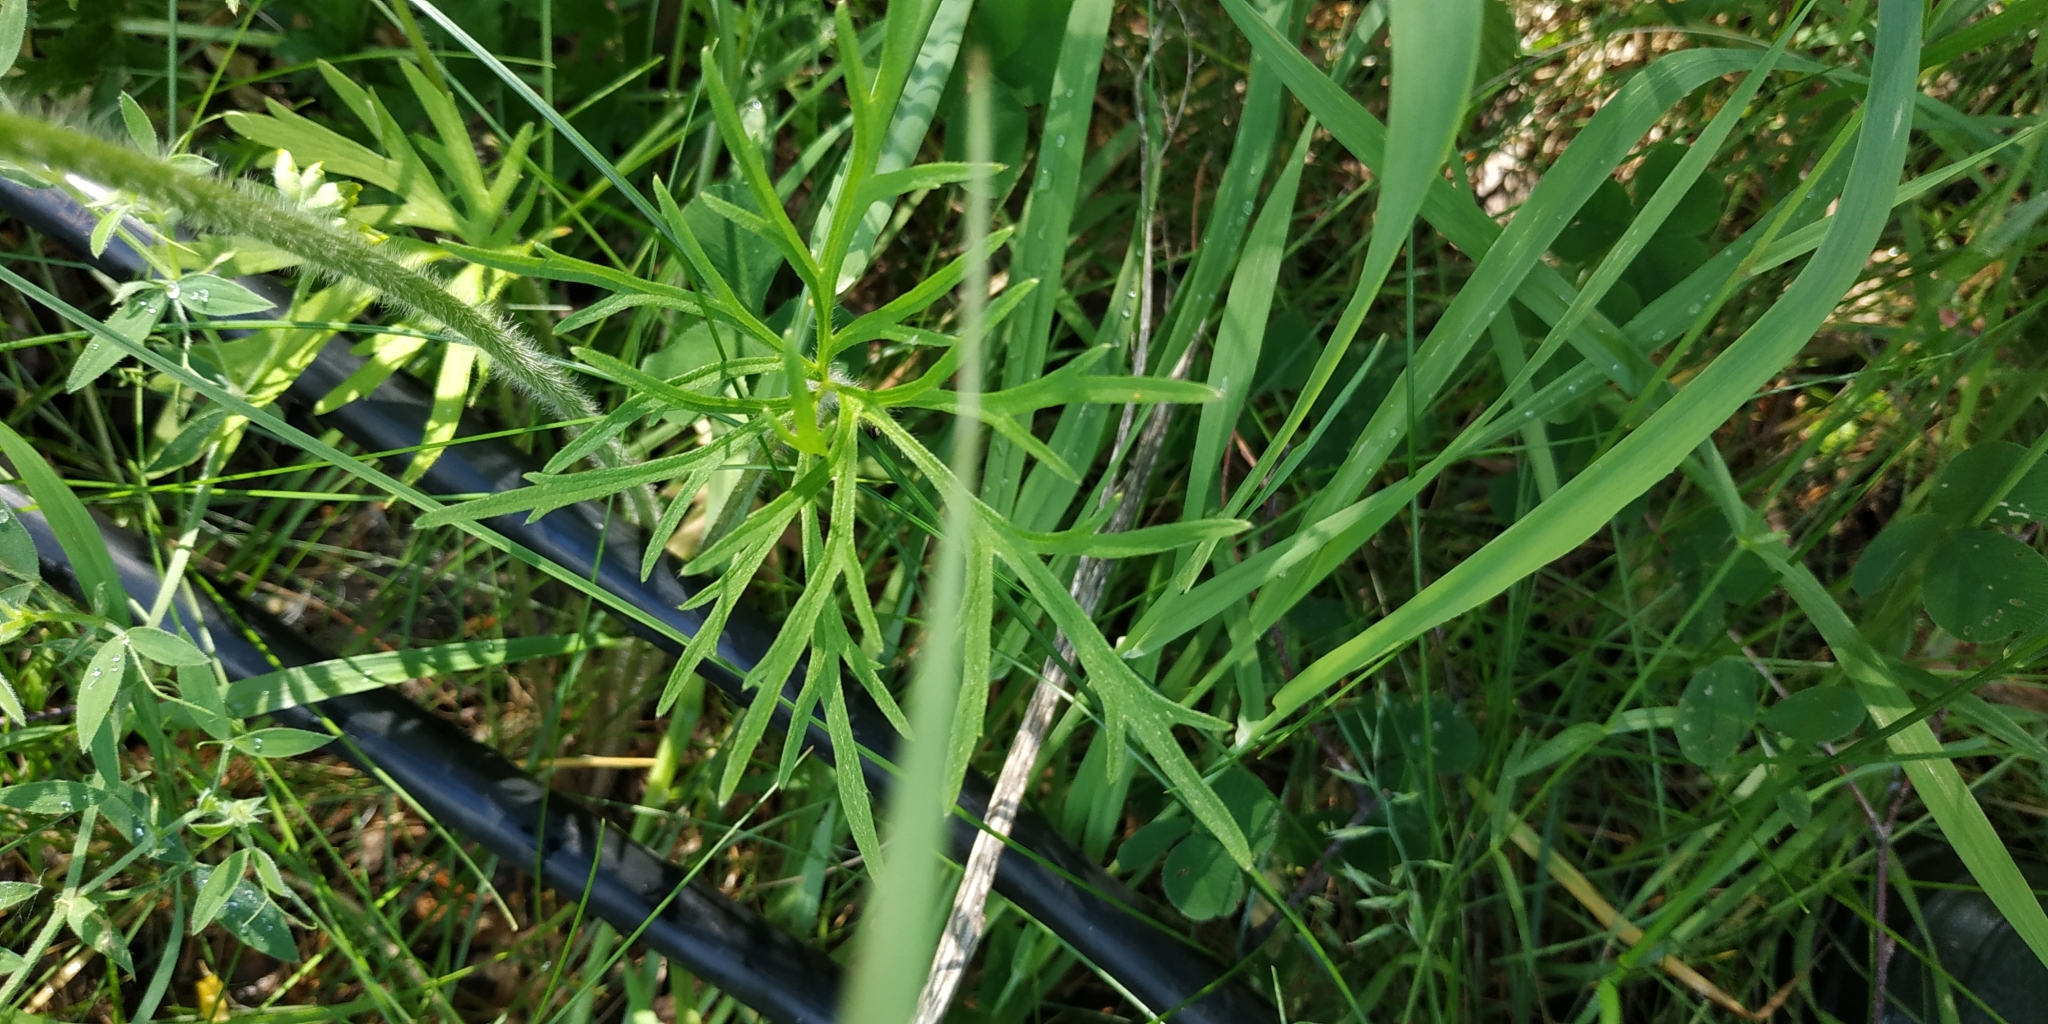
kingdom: Plantae
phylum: Tracheophyta
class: Magnoliopsida
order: Ranunculales
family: Ranunculaceae
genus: Ranunculus
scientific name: Ranunculus polyanthemos
